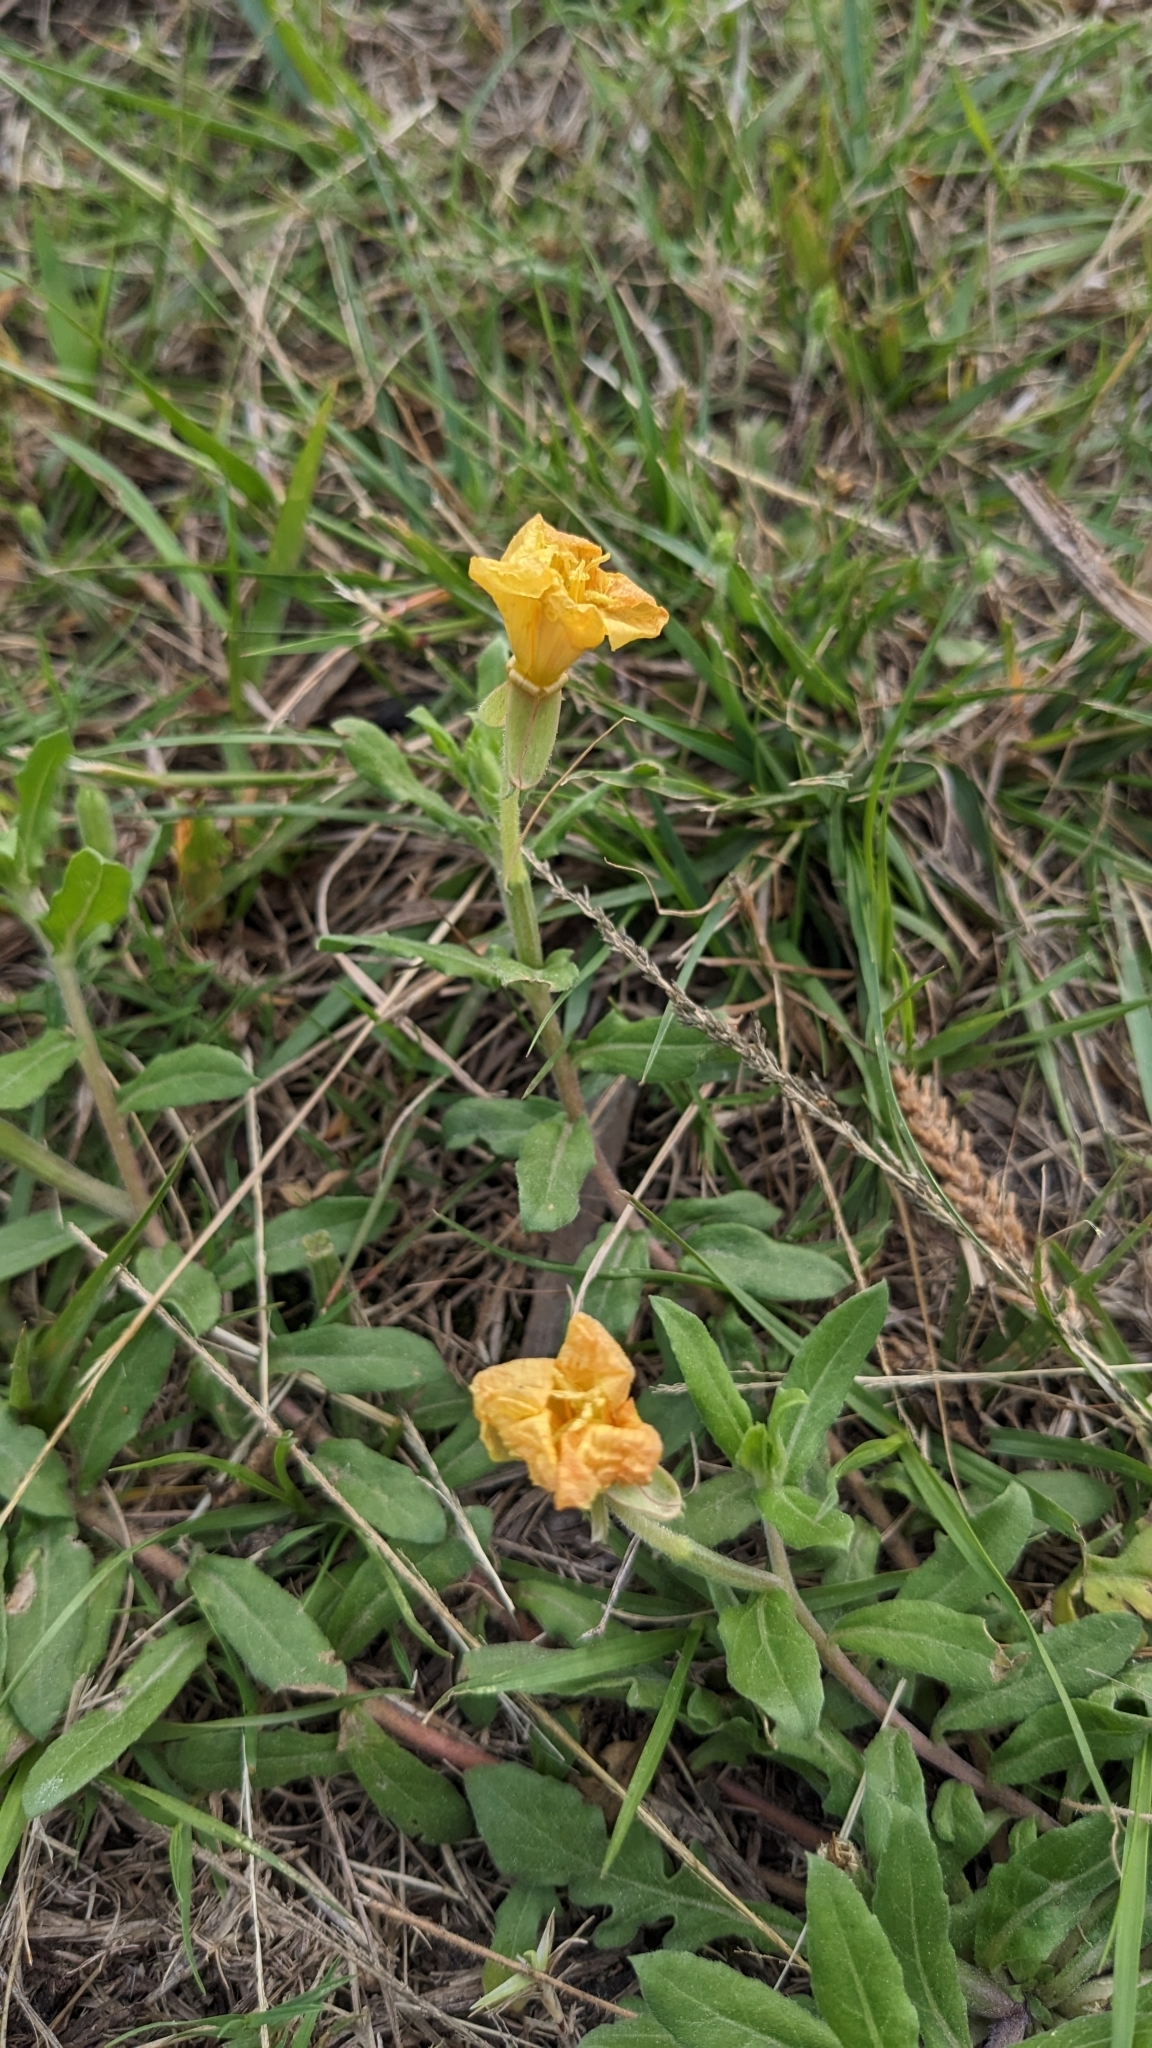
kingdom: Plantae
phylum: Tracheophyta
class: Magnoliopsida
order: Myrtales
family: Onagraceae
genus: Oenothera
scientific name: Oenothera laciniata
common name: Cut-leaved evening-primrose
